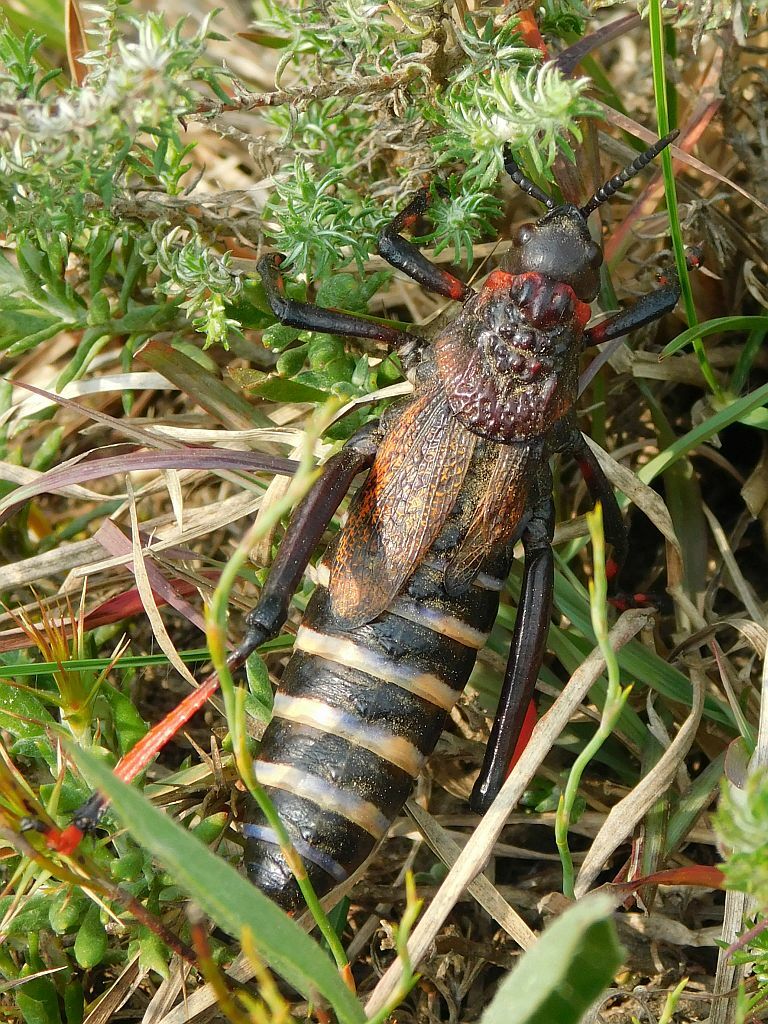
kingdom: Animalia
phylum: Arthropoda
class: Insecta
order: Orthoptera
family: Pyrgomorphidae
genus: Dictyophorus
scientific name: Dictyophorus spumans
